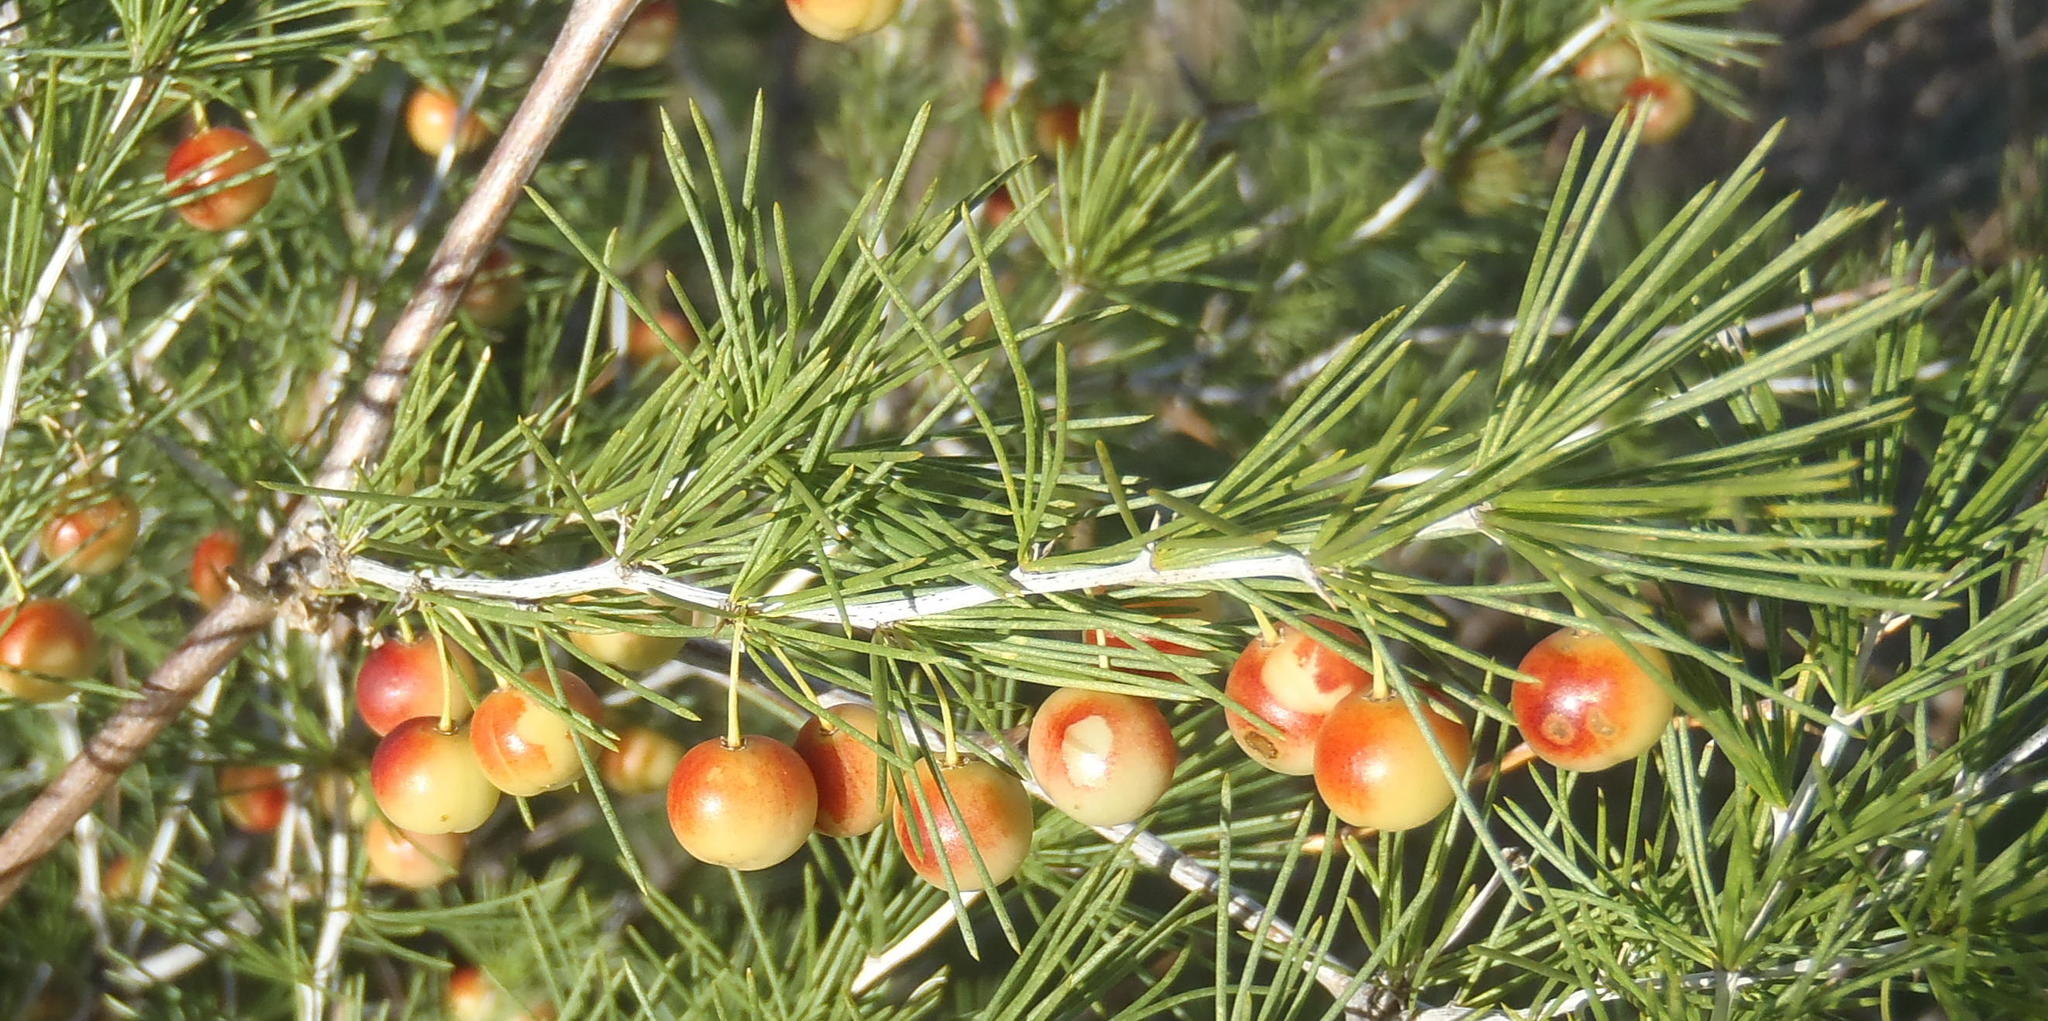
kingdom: Plantae
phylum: Tracheophyta
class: Liliopsida
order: Asparagales
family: Asparagaceae
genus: Asparagus
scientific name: Asparagus laricinus
